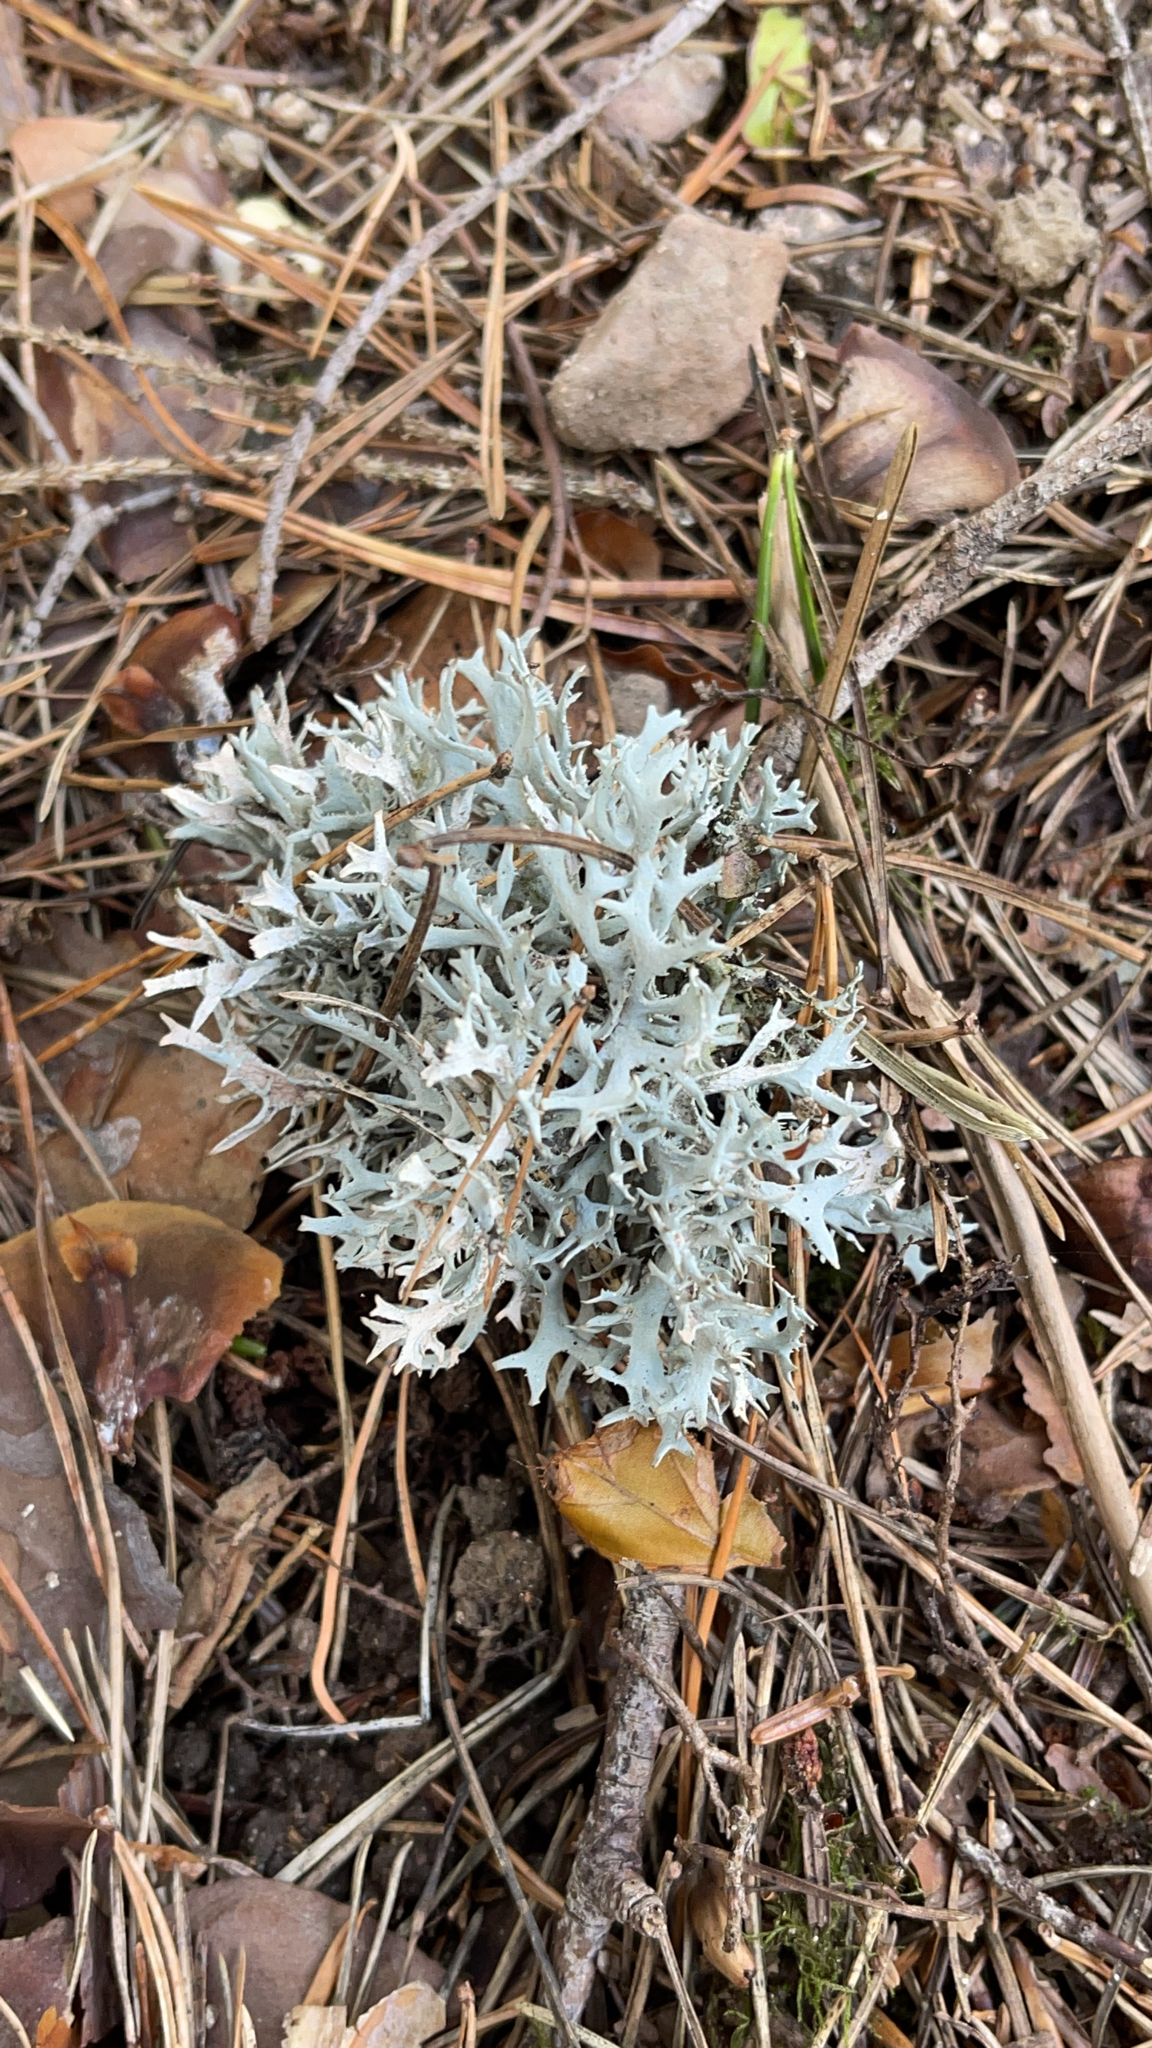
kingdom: Fungi
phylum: Ascomycota
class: Lecanoromycetes
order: Lecanorales
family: Parmeliaceae
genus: Pseudevernia
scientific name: Pseudevernia furfuracea
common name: Tree moss
